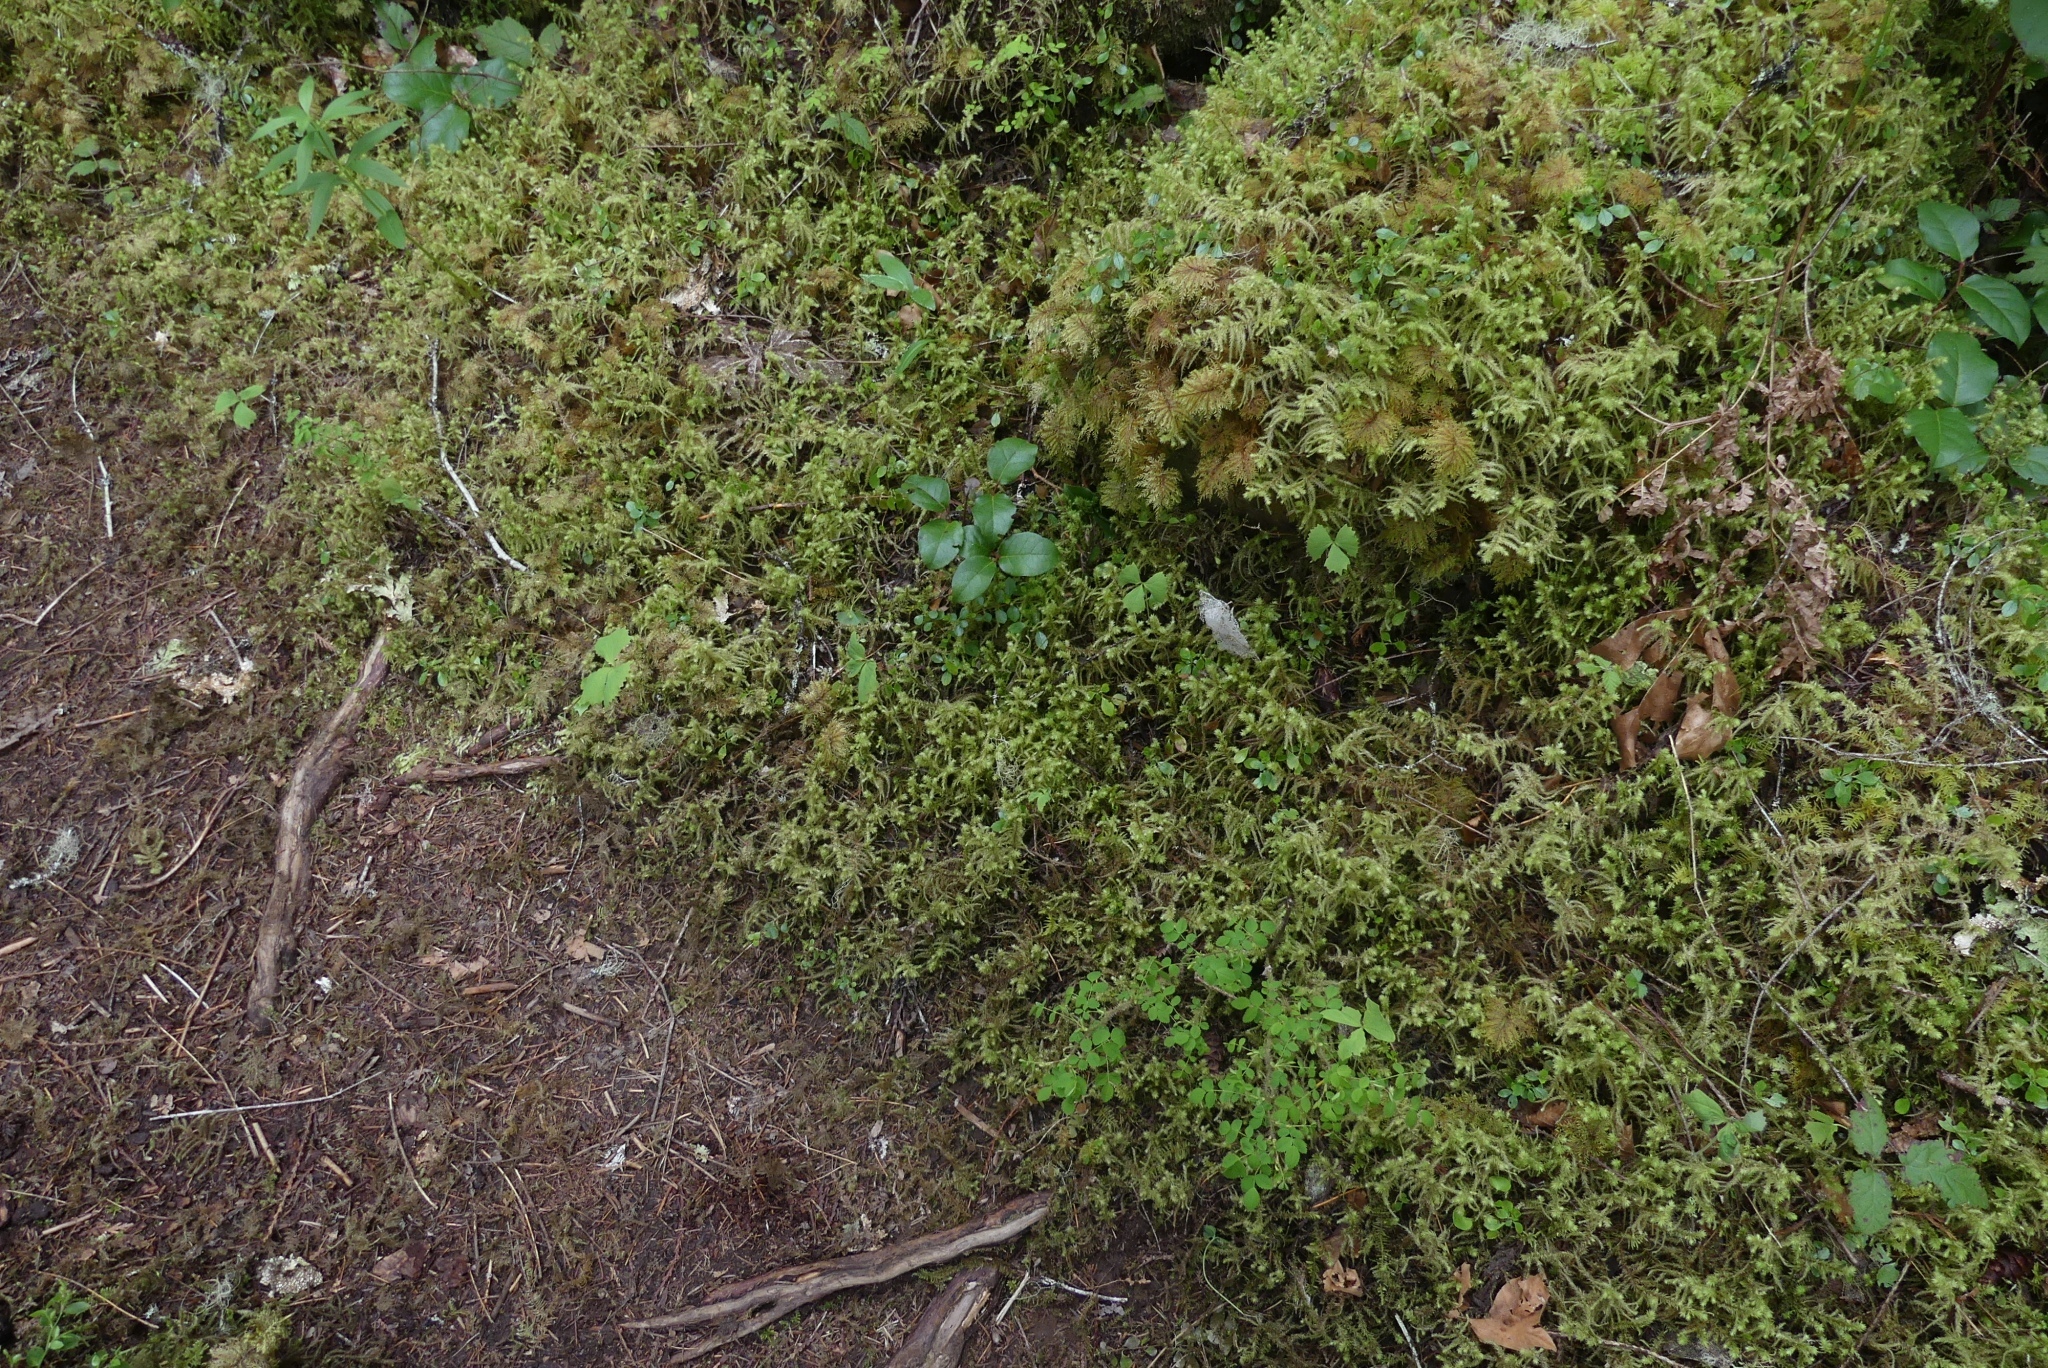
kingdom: Plantae
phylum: Bryophyta
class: Bryopsida
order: Hypnales
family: Hylocomiaceae
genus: Hylocomiadelphus
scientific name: Hylocomiadelphus triquetrus
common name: Rough goose neck moss
